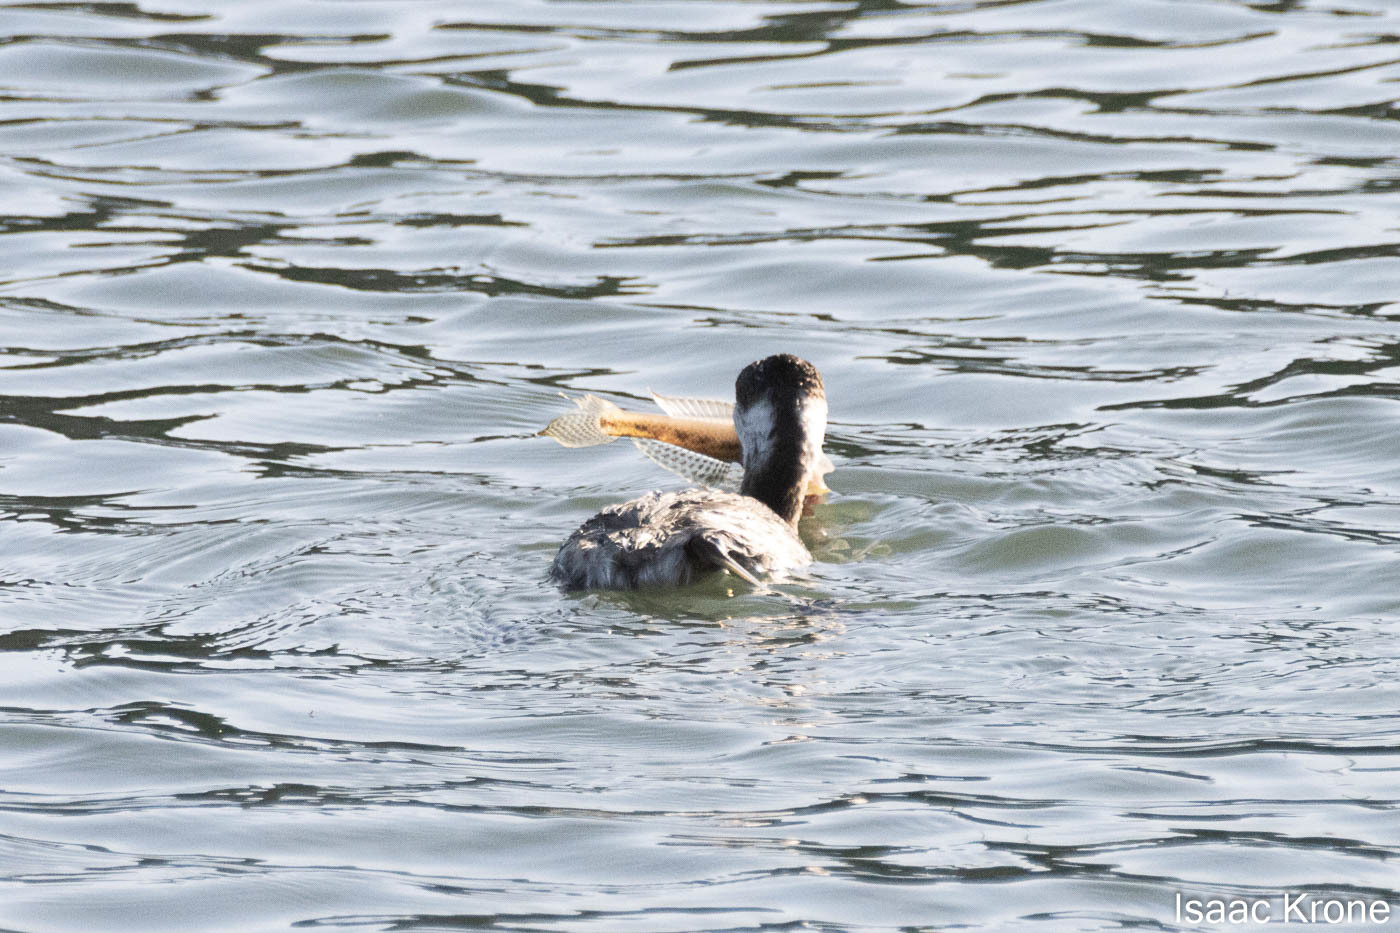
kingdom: Animalia
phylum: Chordata
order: Perciformes
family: Gobiidae
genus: Acanthogobius
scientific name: Acanthogobius flavimanus
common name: Yellowfin goby
